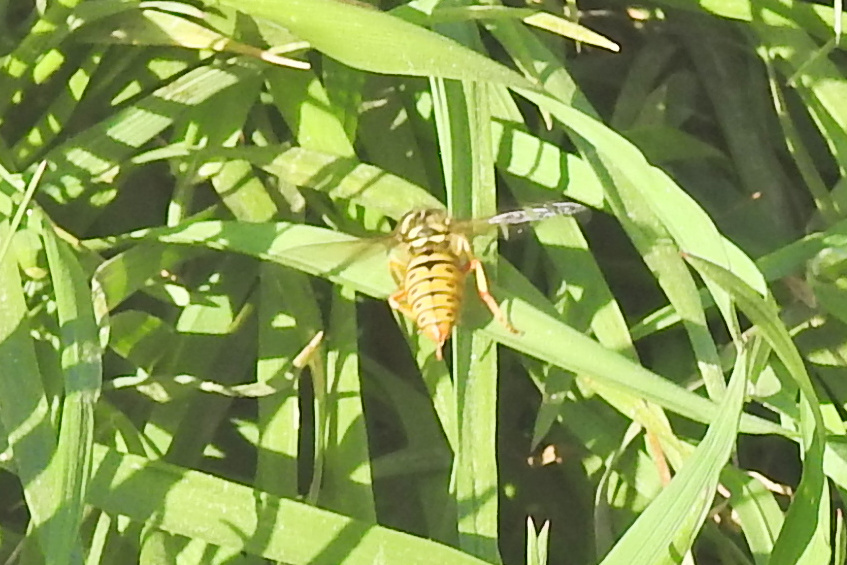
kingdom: Animalia
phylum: Arthropoda
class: Insecta
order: Hymenoptera
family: Vespidae
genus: Vespula
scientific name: Vespula maculifrons
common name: Eastern yellowjacket
